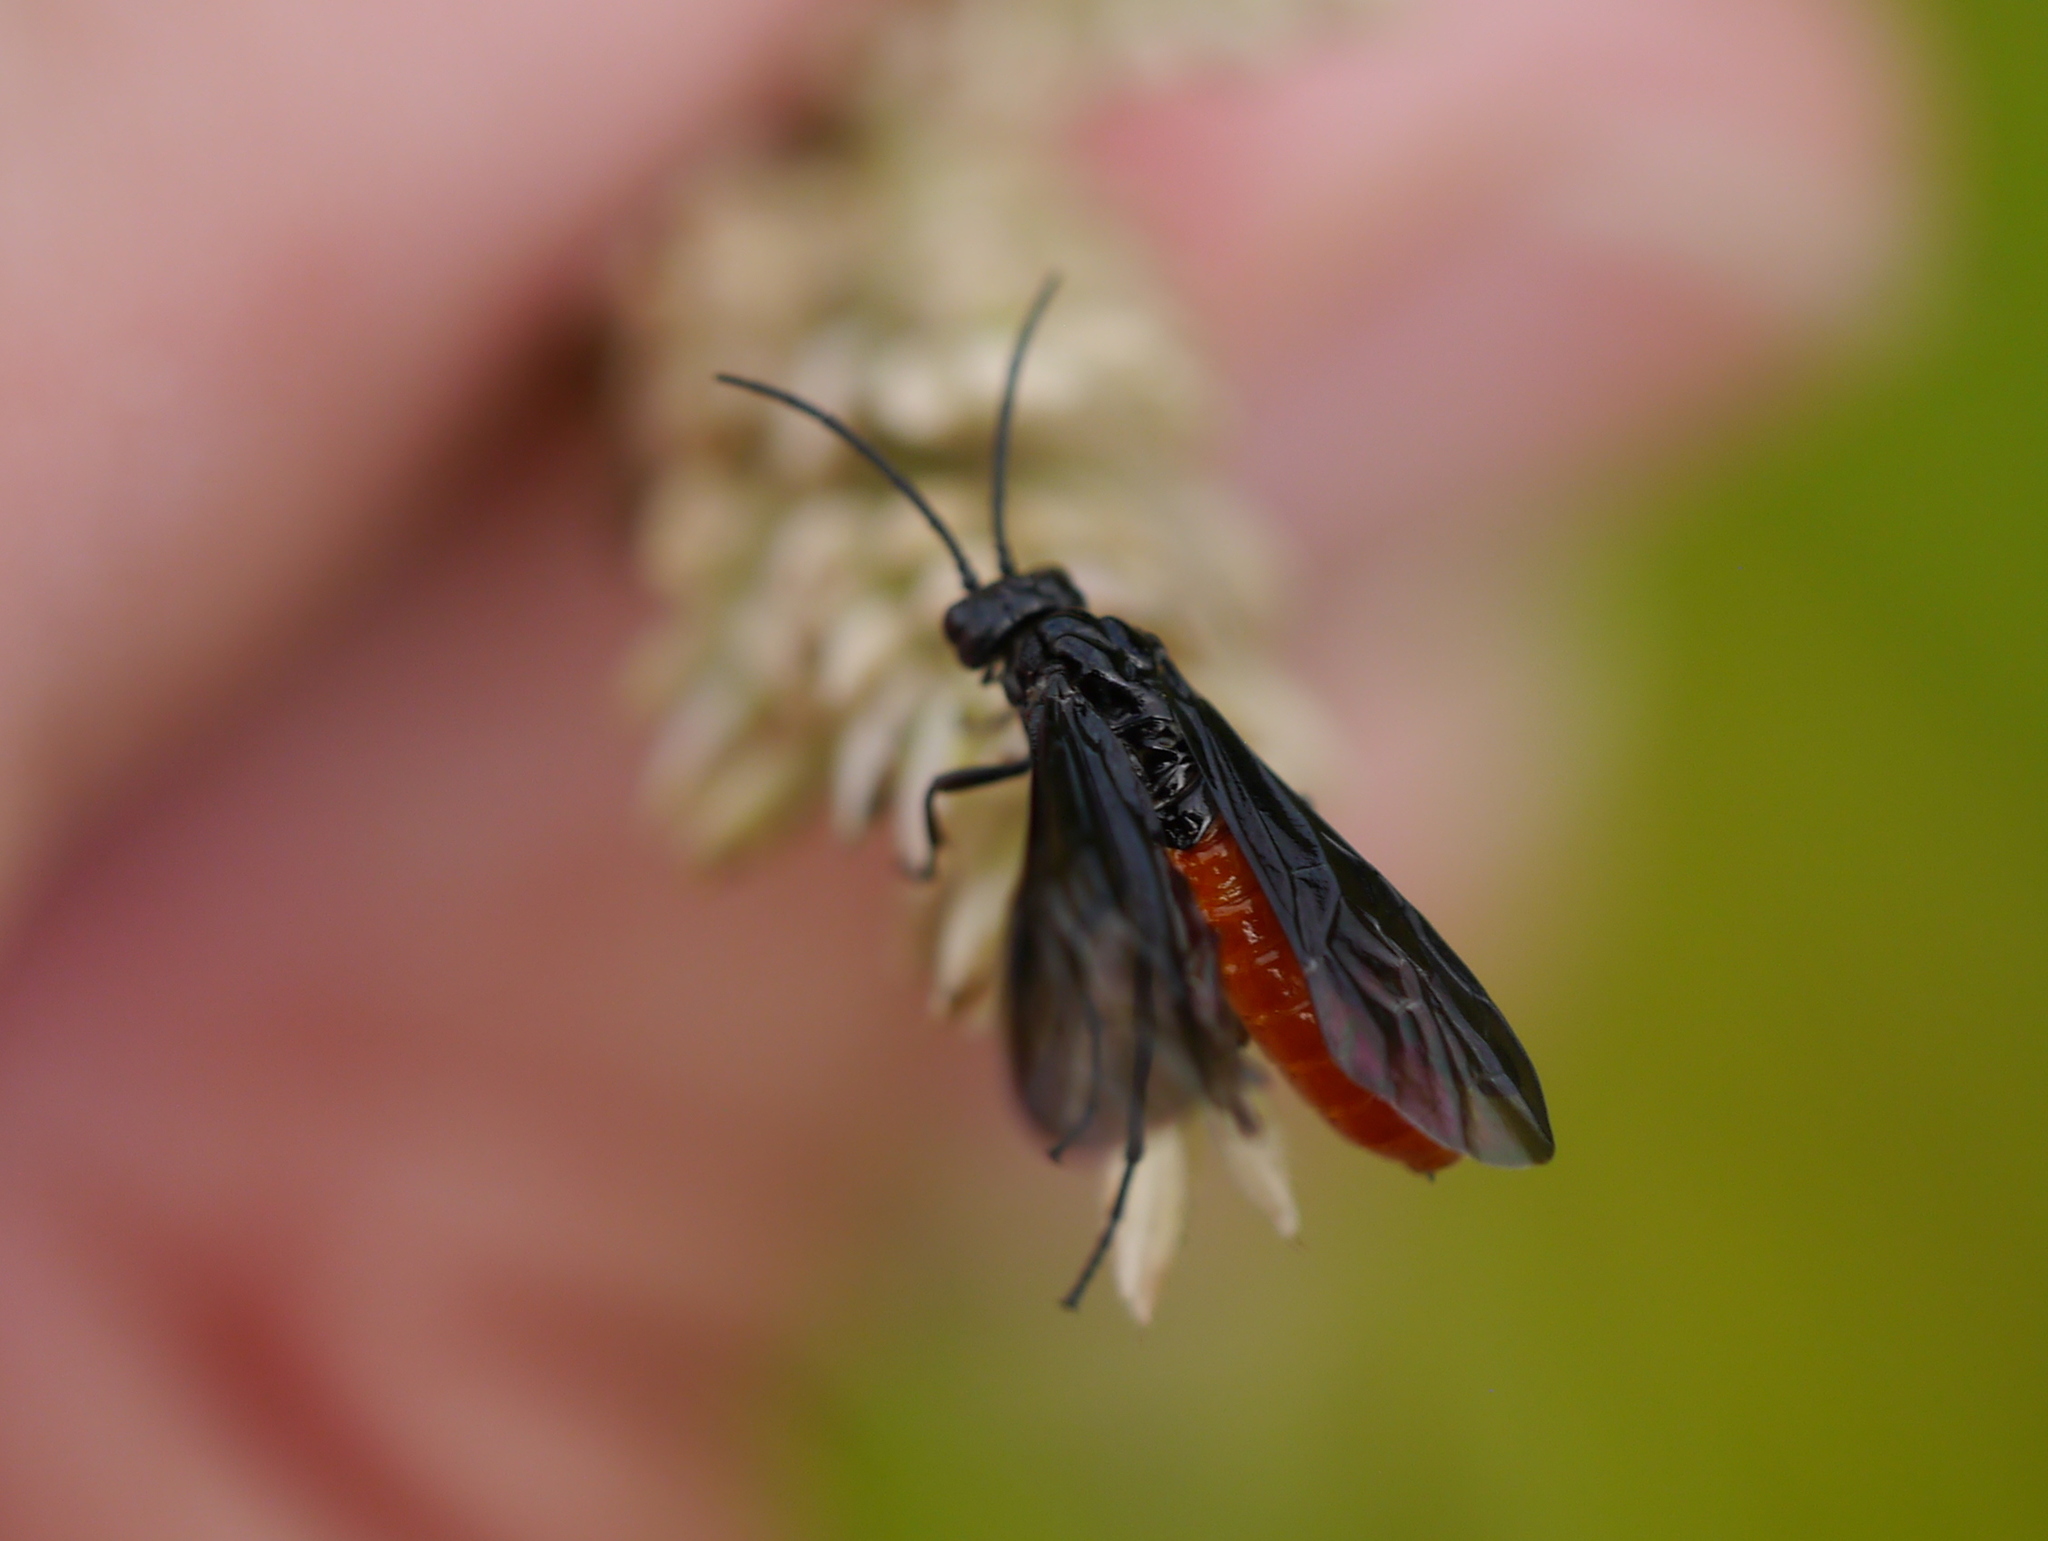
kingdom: Animalia
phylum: Arthropoda
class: Insecta
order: Hymenoptera
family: Tenthredinidae
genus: Lagium
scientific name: Lagium atroviolaceum
